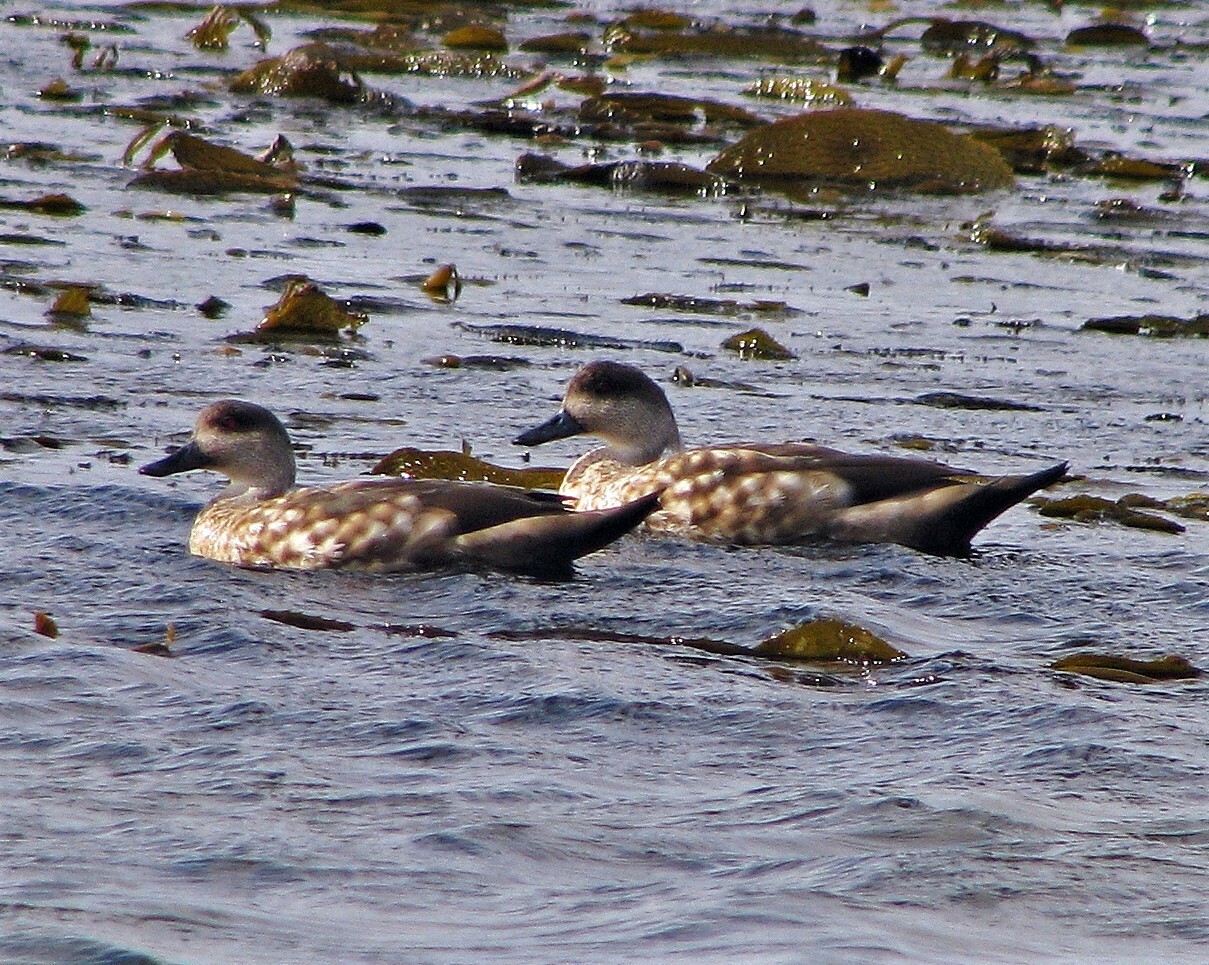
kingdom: Animalia
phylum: Chordata
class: Aves
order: Anseriformes
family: Anatidae
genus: Lophonetta
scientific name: Lophonetta specularioides
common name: Crested duck
